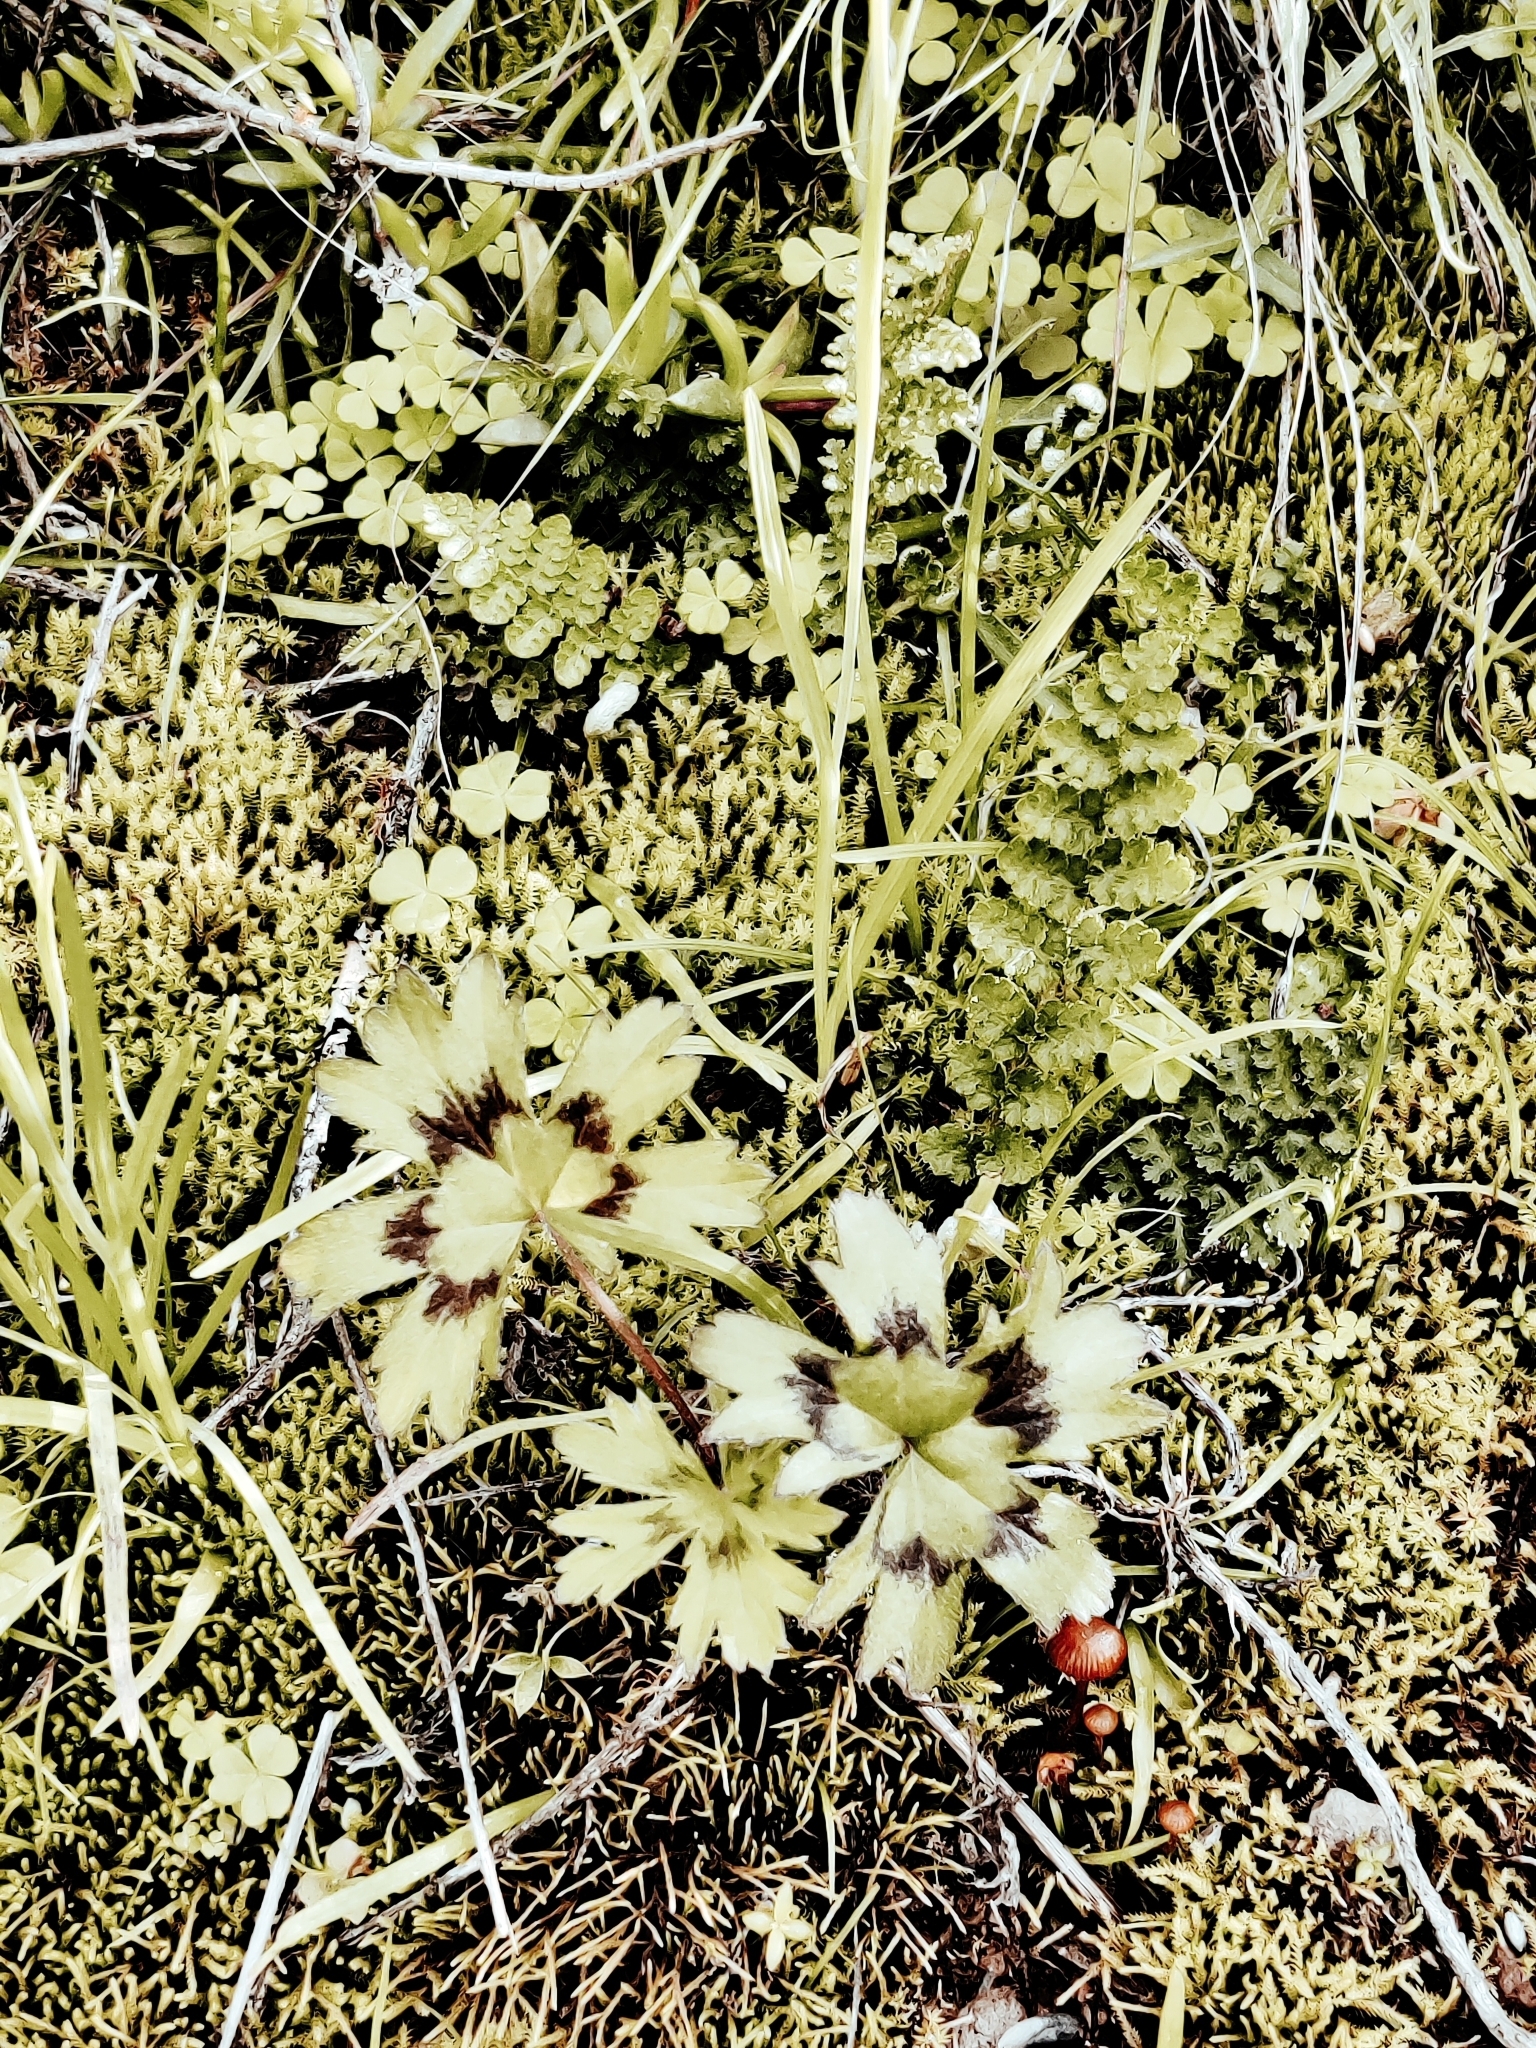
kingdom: Plantae
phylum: Tracheophyta
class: Magnoliopsida
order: Geraniales
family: Geraniaceae
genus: Pelargonium
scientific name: Pelargonium alchemilloides
